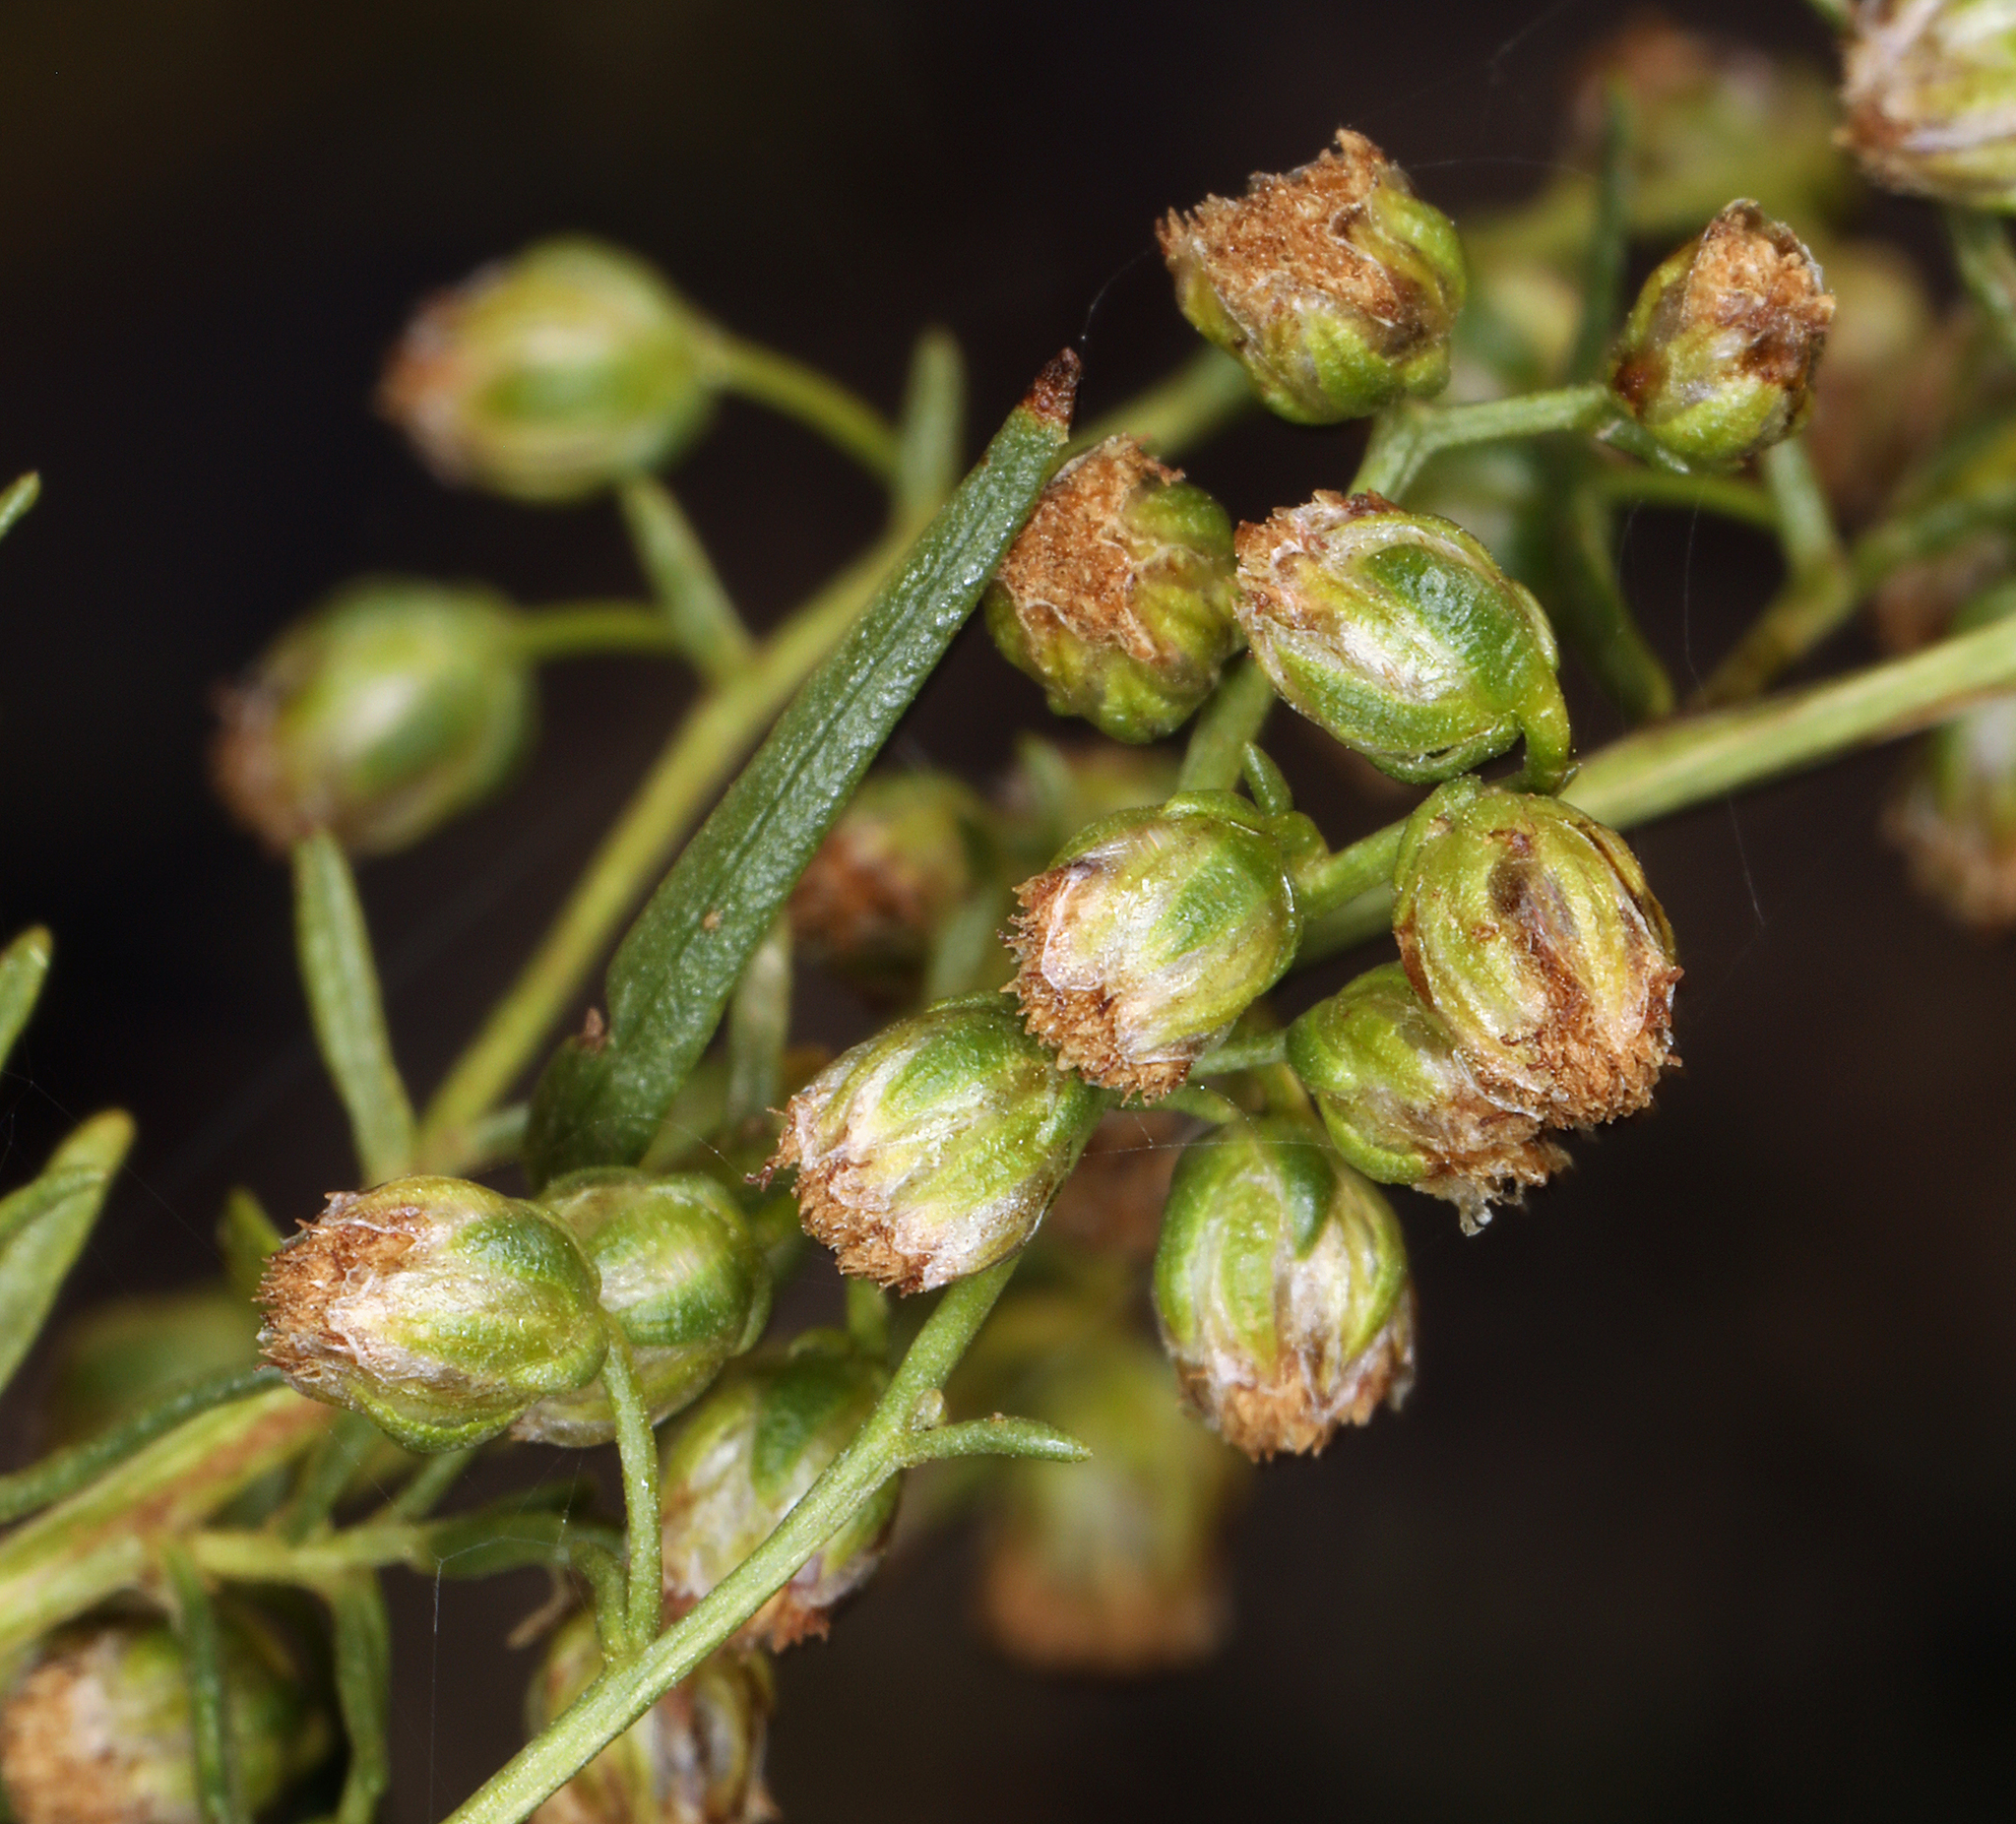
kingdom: Plantae
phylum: Tracheophyta
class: Magnoliopsida
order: Asterales
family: Asteraceae
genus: Artemisia
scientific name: Artemisia dracunculus
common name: Tarragon
